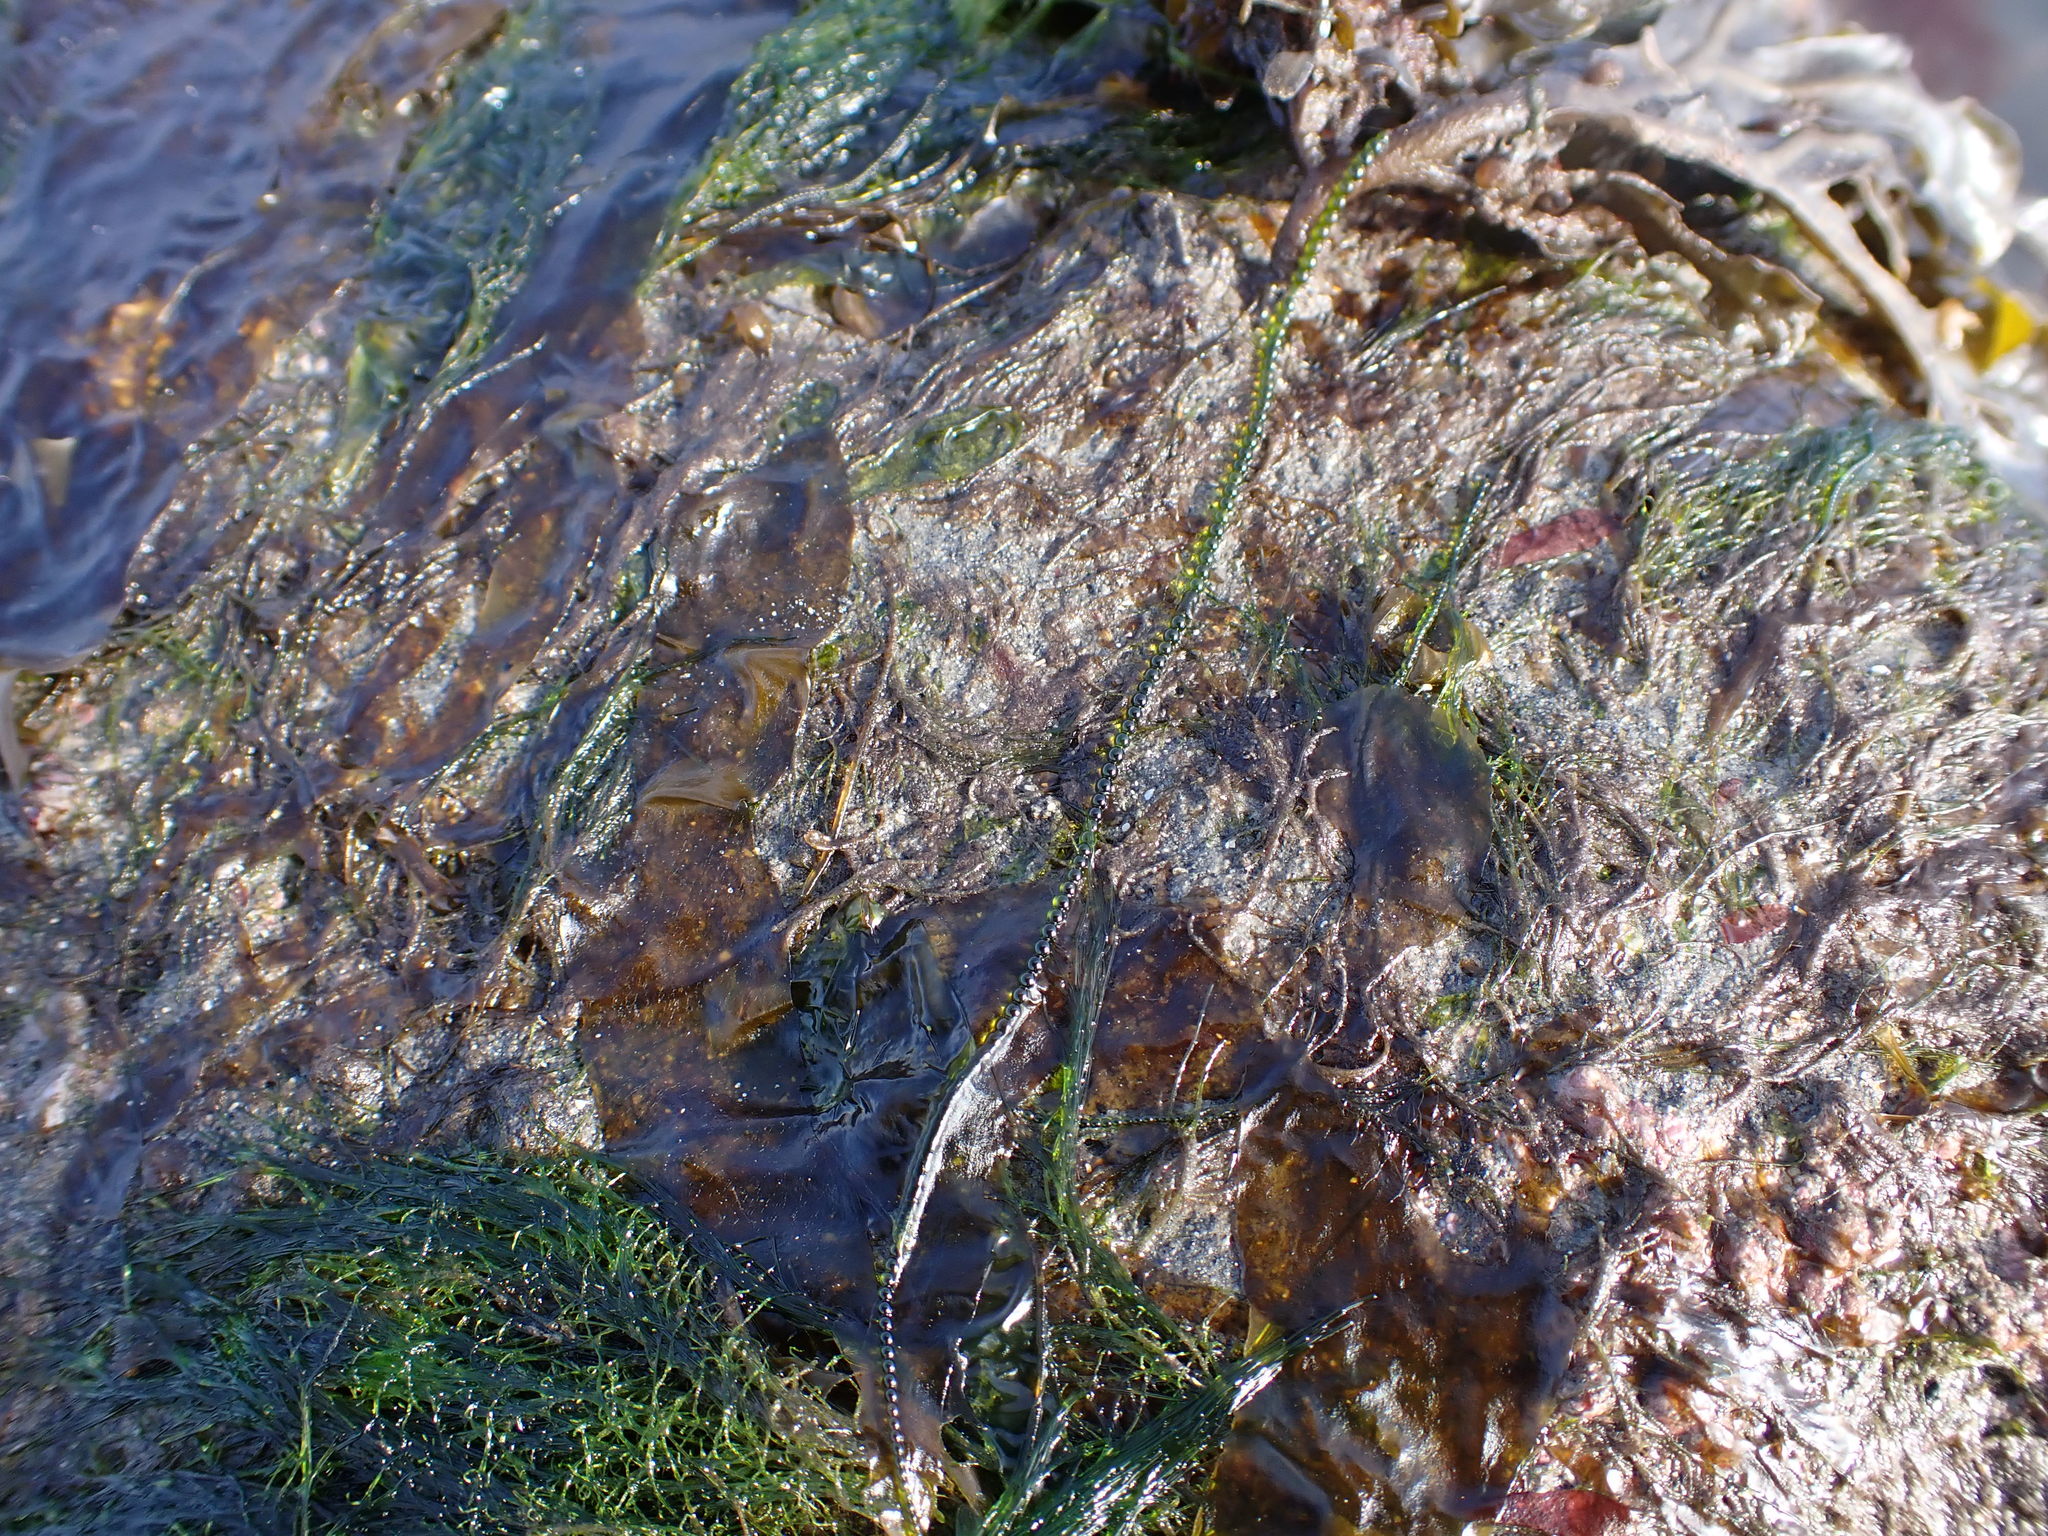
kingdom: Plantae
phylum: Chlorophyta
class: Ulvophyceae
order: Ulotrichales
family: Ulotrichaceae
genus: Urospora
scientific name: Urospora wormskioldii
